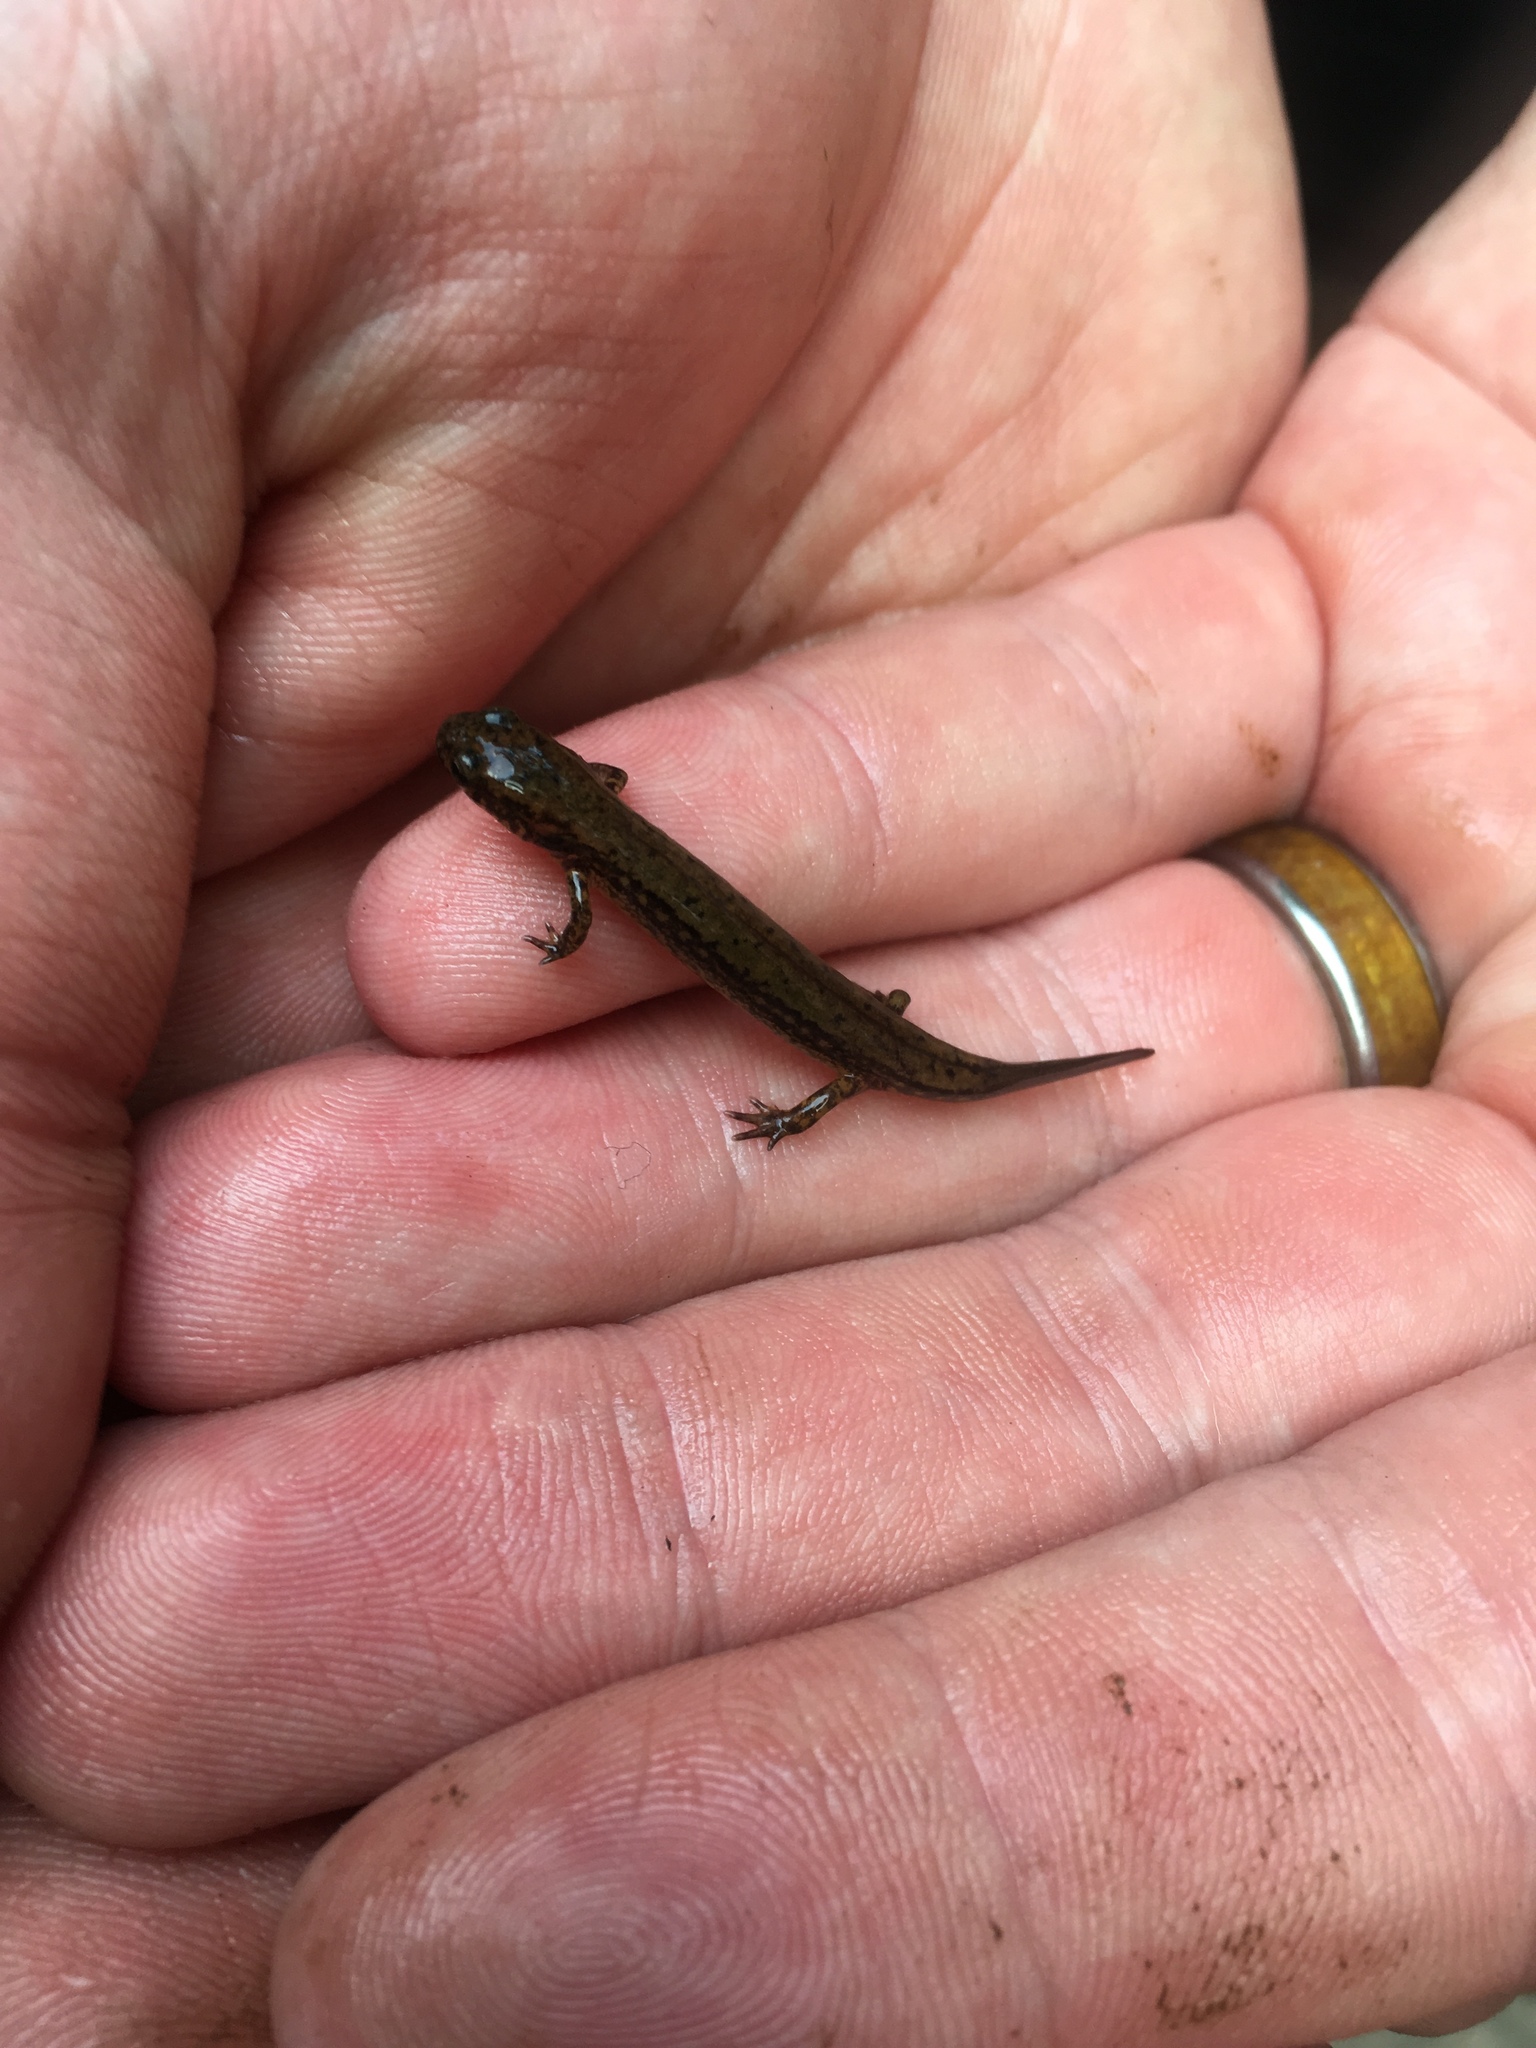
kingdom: Animalia
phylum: Chordata
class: Amphibia
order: Caudata
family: Plethodontidae
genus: Eurycea
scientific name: Eurycea cirrigera
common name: Southern two-lined salamander
